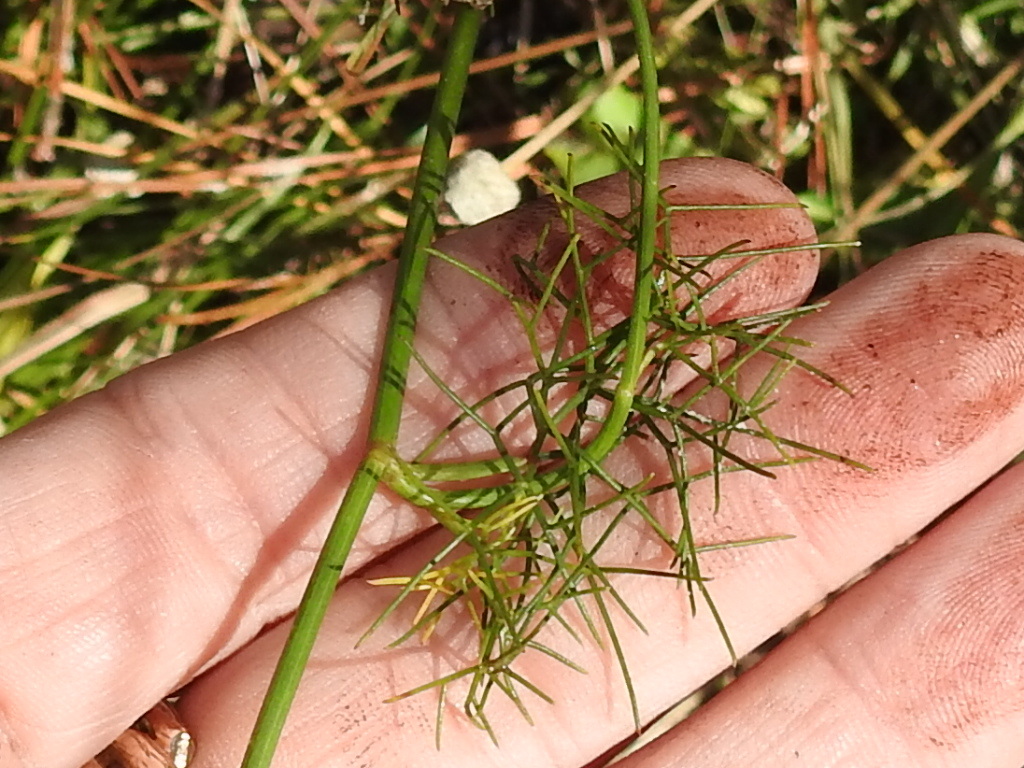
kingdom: Plantae
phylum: Tracheophyta
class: Magnoliopsida
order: Apiales
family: Apiaceae
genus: Ptilimnium
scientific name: Ptilimnium costatum
